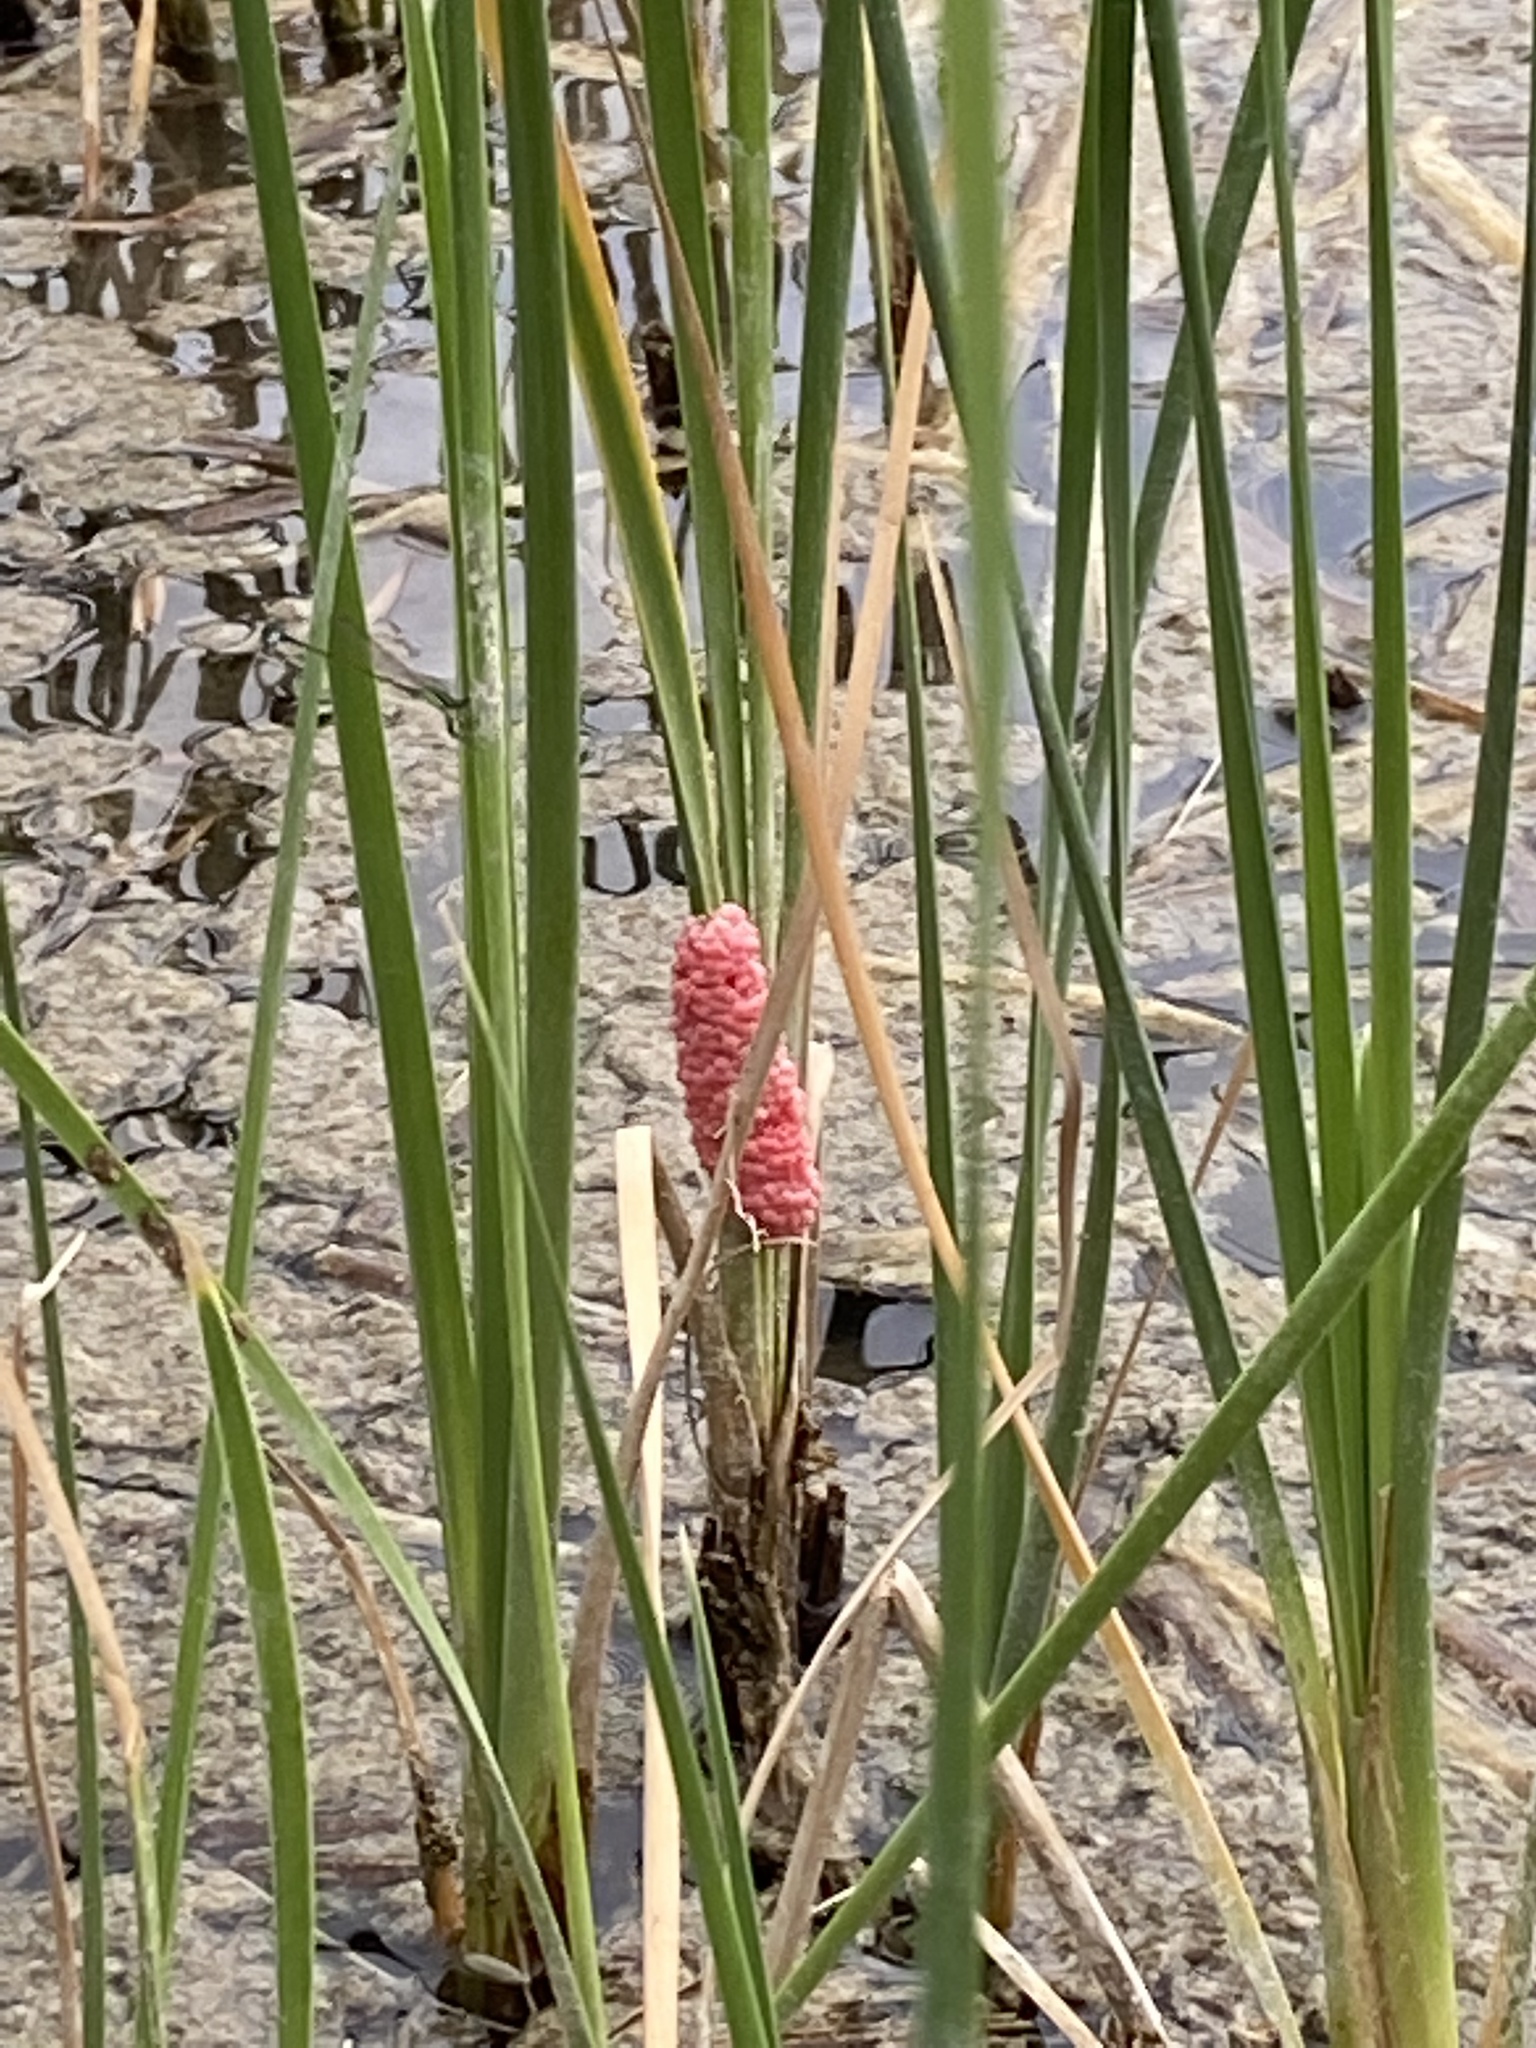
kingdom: Animalia
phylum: Mollusca
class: Gastropoda
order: Architaenioglossa
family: Ampullariidae
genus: Pomacea
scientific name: Pomacea canaliculata
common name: Channeled applesnail
